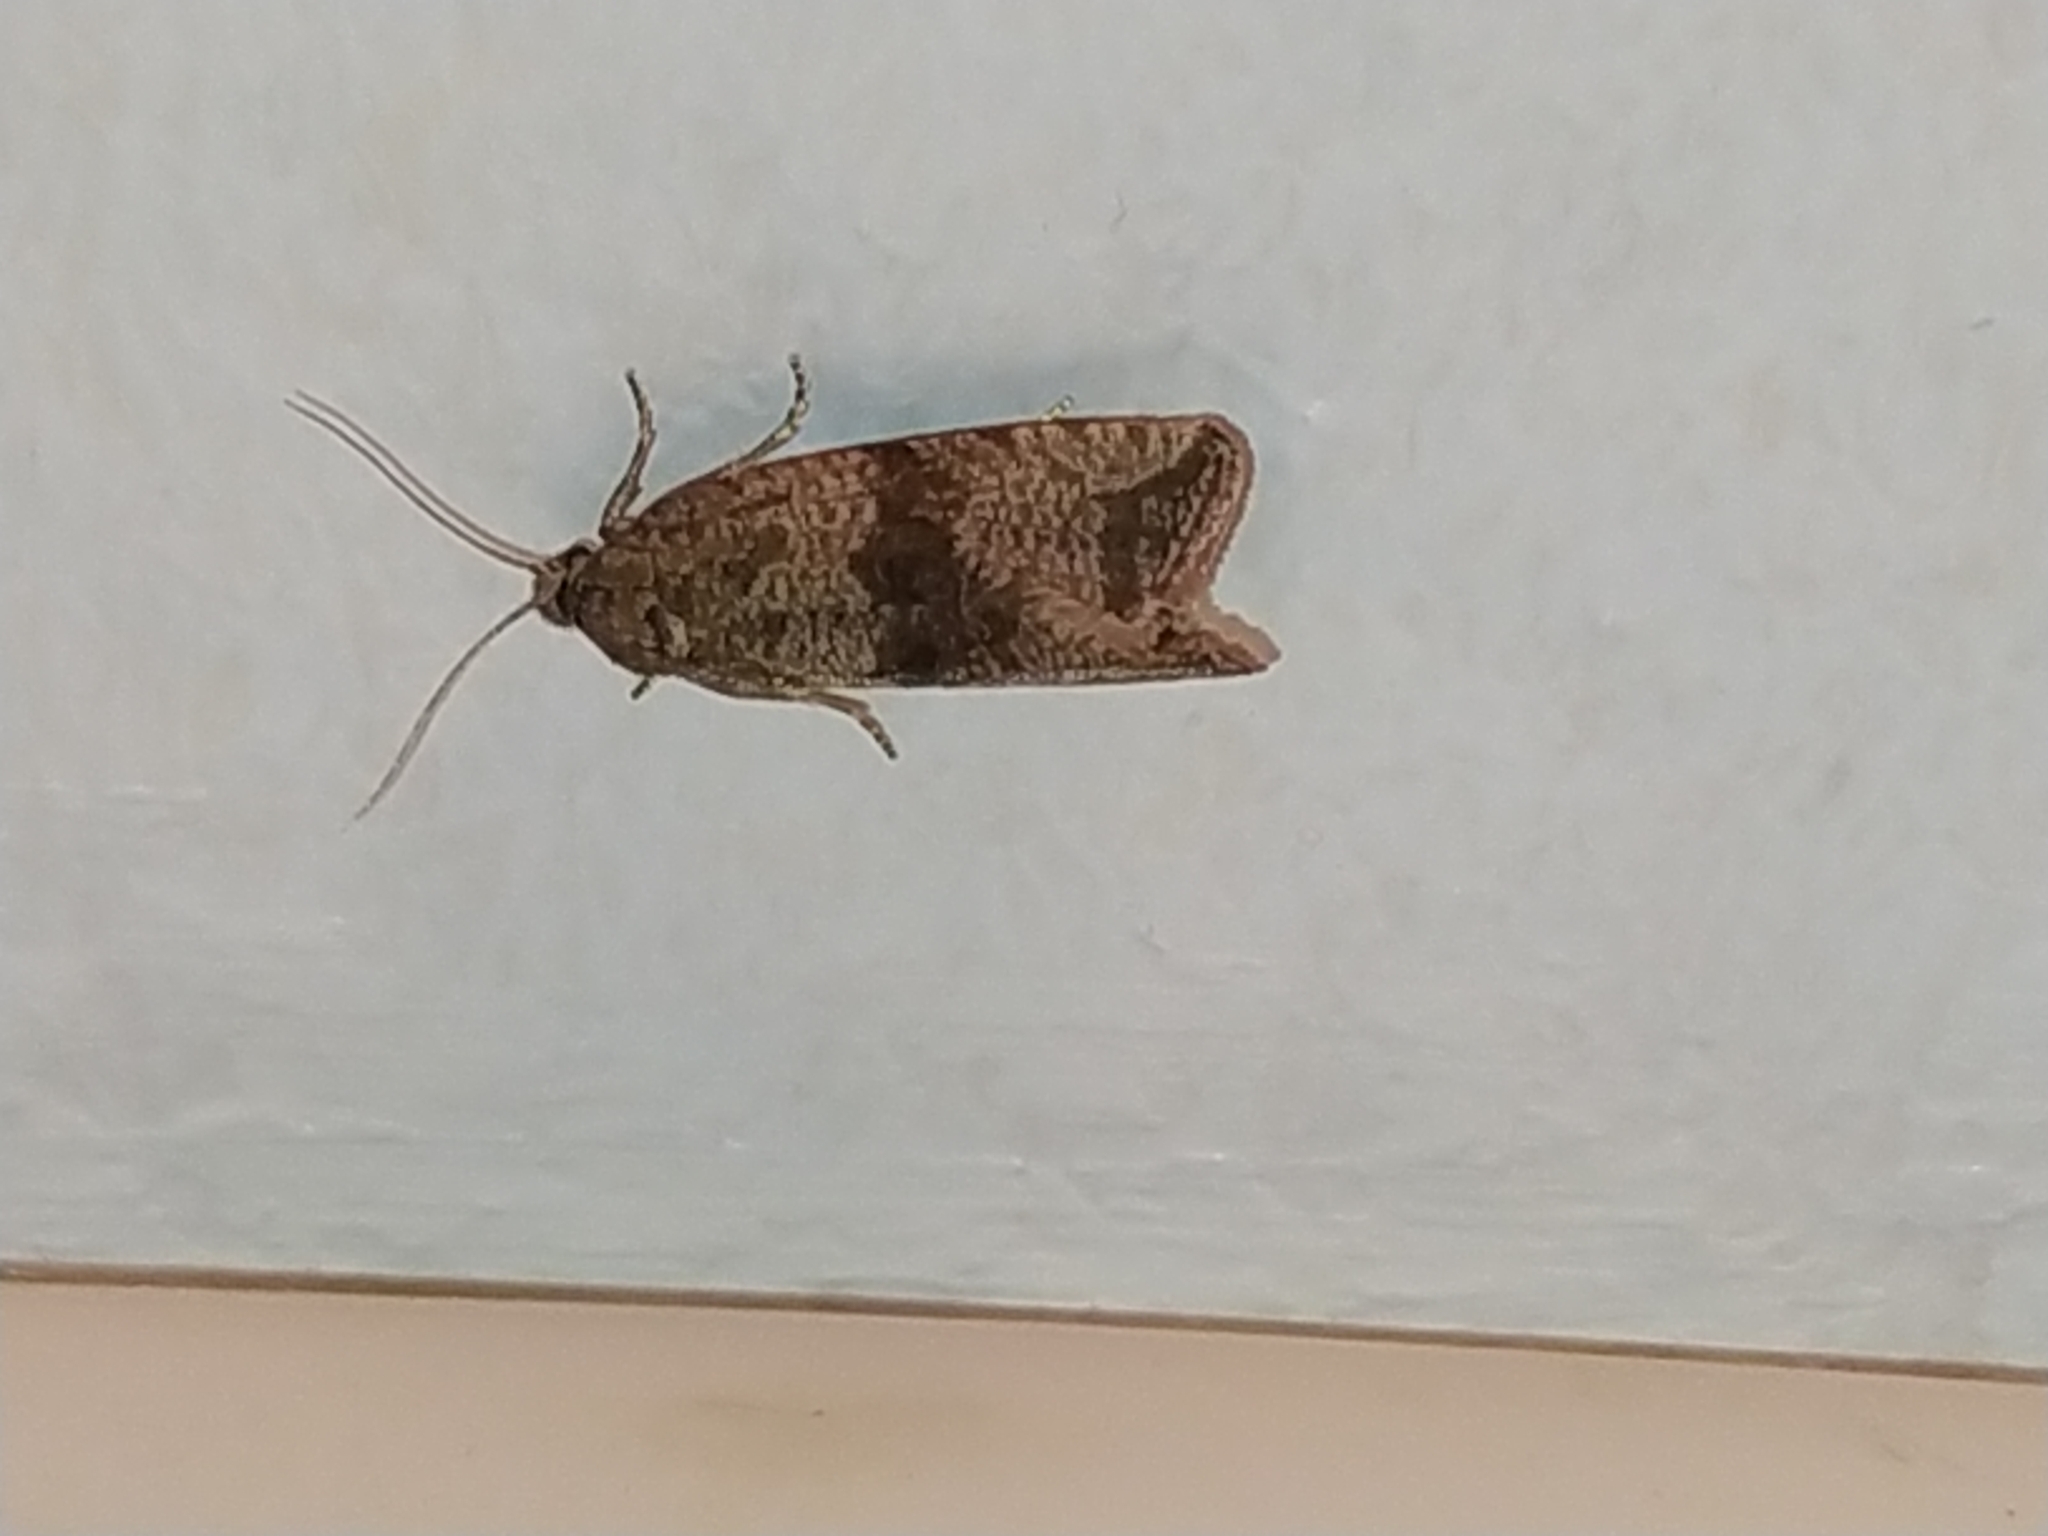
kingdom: Animalia
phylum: Arthropoda
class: Insecta
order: Lepidoptera
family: Tortricidae
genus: Celypha
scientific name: Celypha striana
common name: Barred marble
